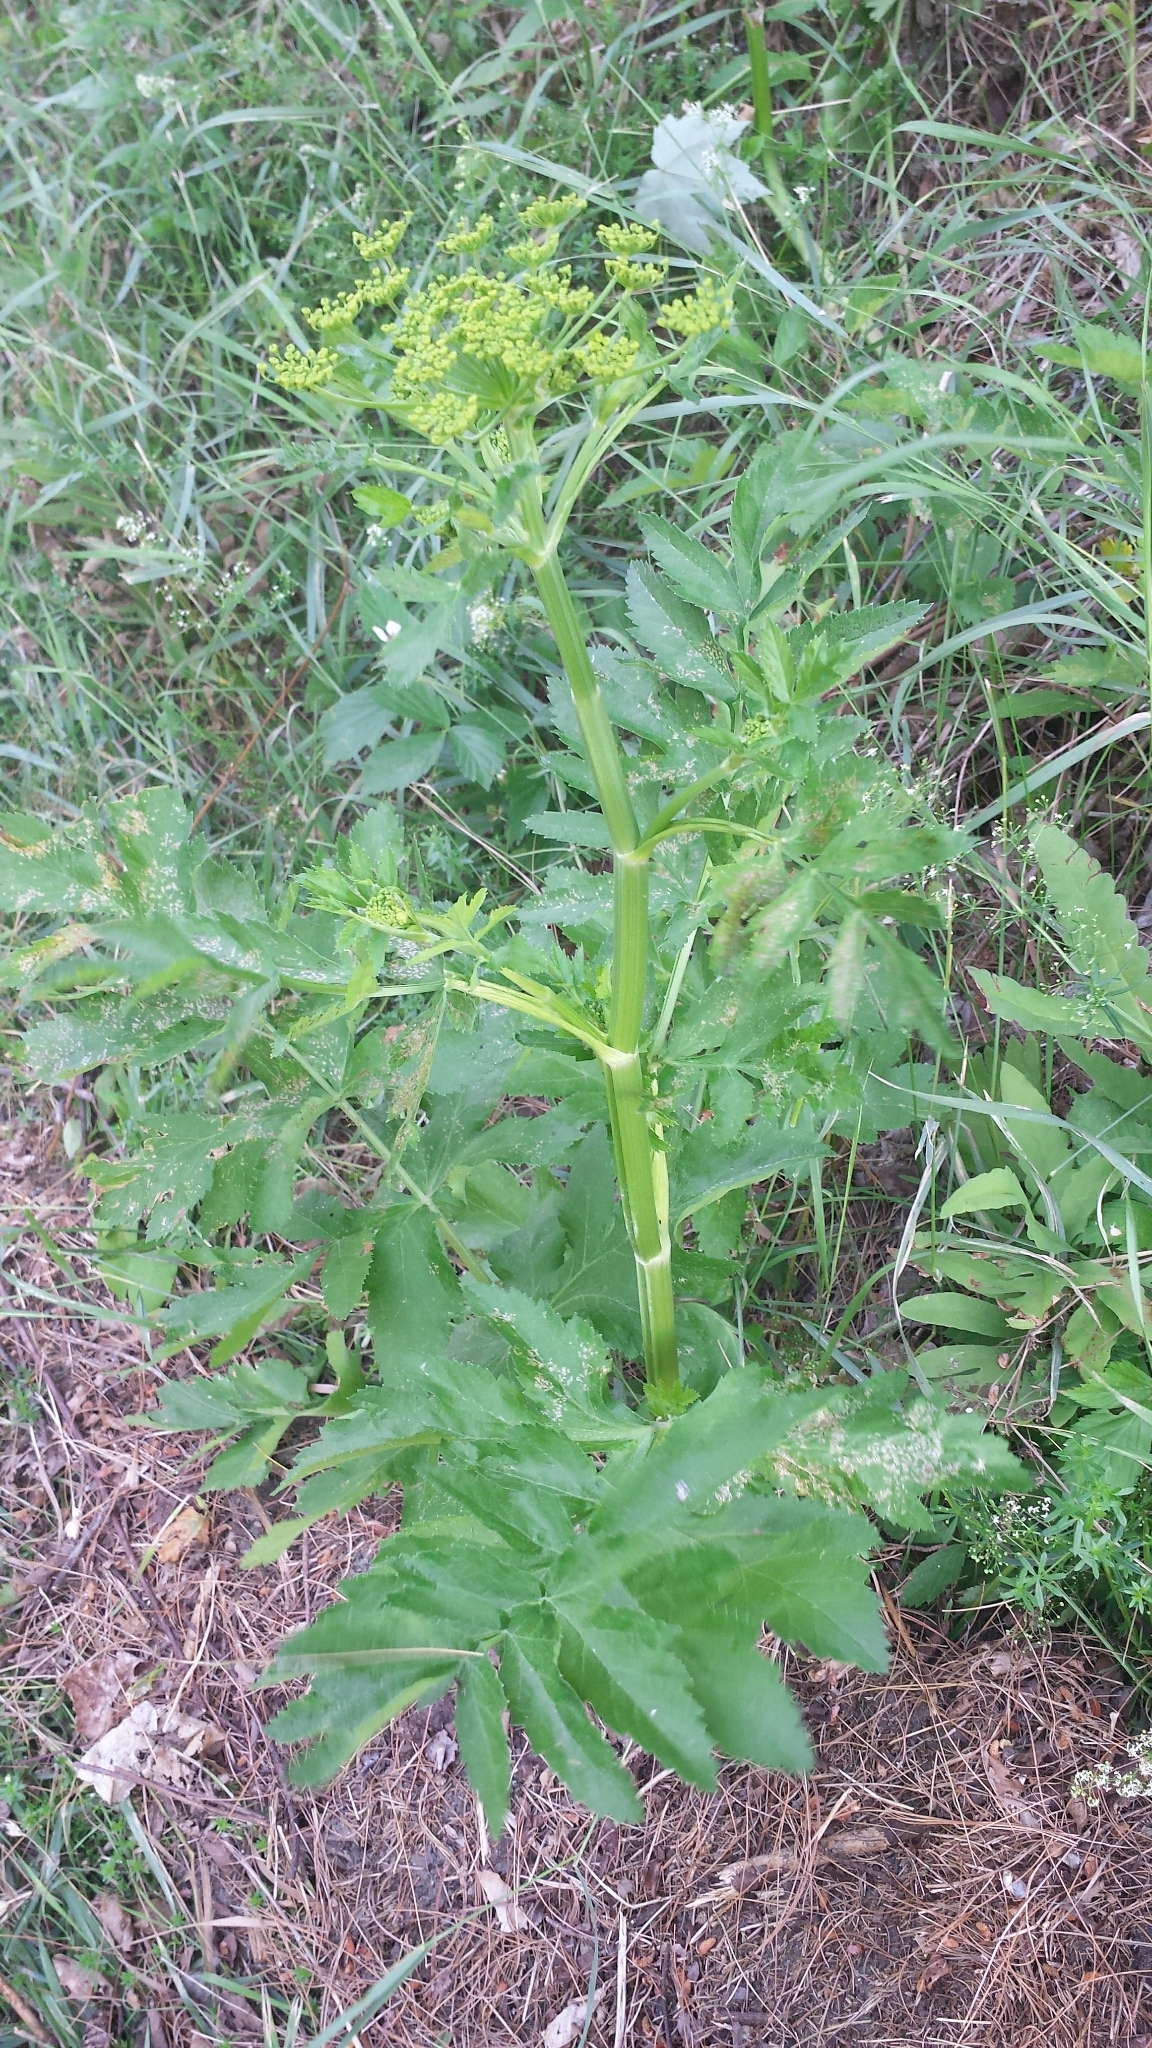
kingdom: Plantae
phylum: Tracheophyta
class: Magnoliopsida
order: Apiales
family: Apiaceae
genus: Pastinaca
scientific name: Pastinaca sativa
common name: Wild parsnip
